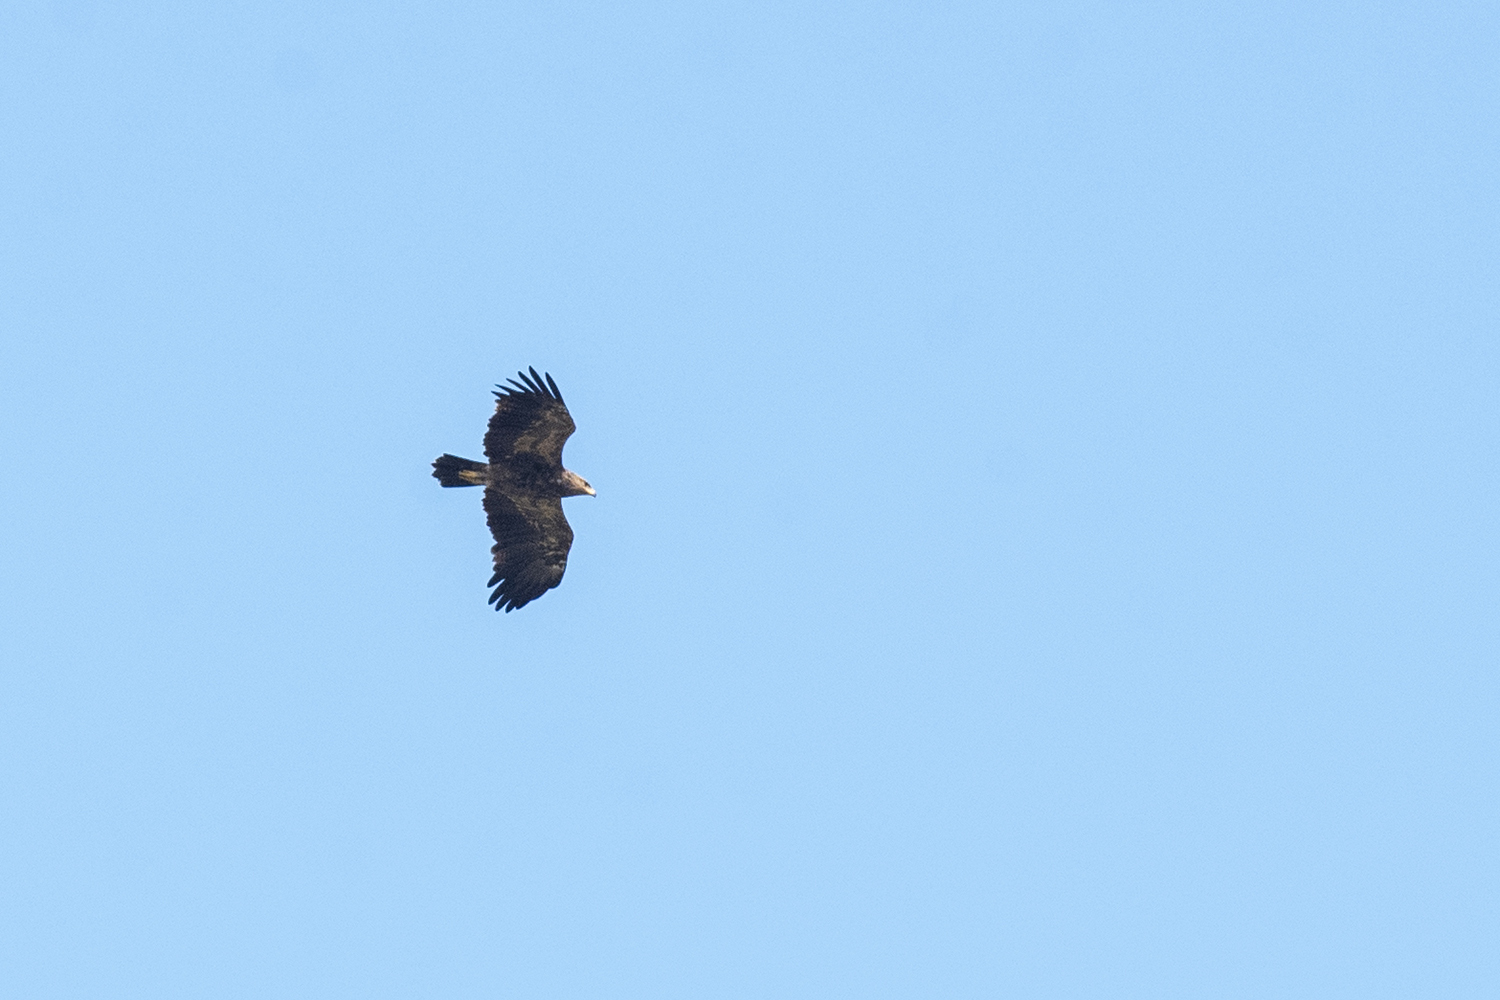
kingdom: Animalia
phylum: Chordata
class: Aves
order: Accipitriformes
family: Accipitridae
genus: Aquila
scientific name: Aquila pomarina
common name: Lesser spotted eagle
